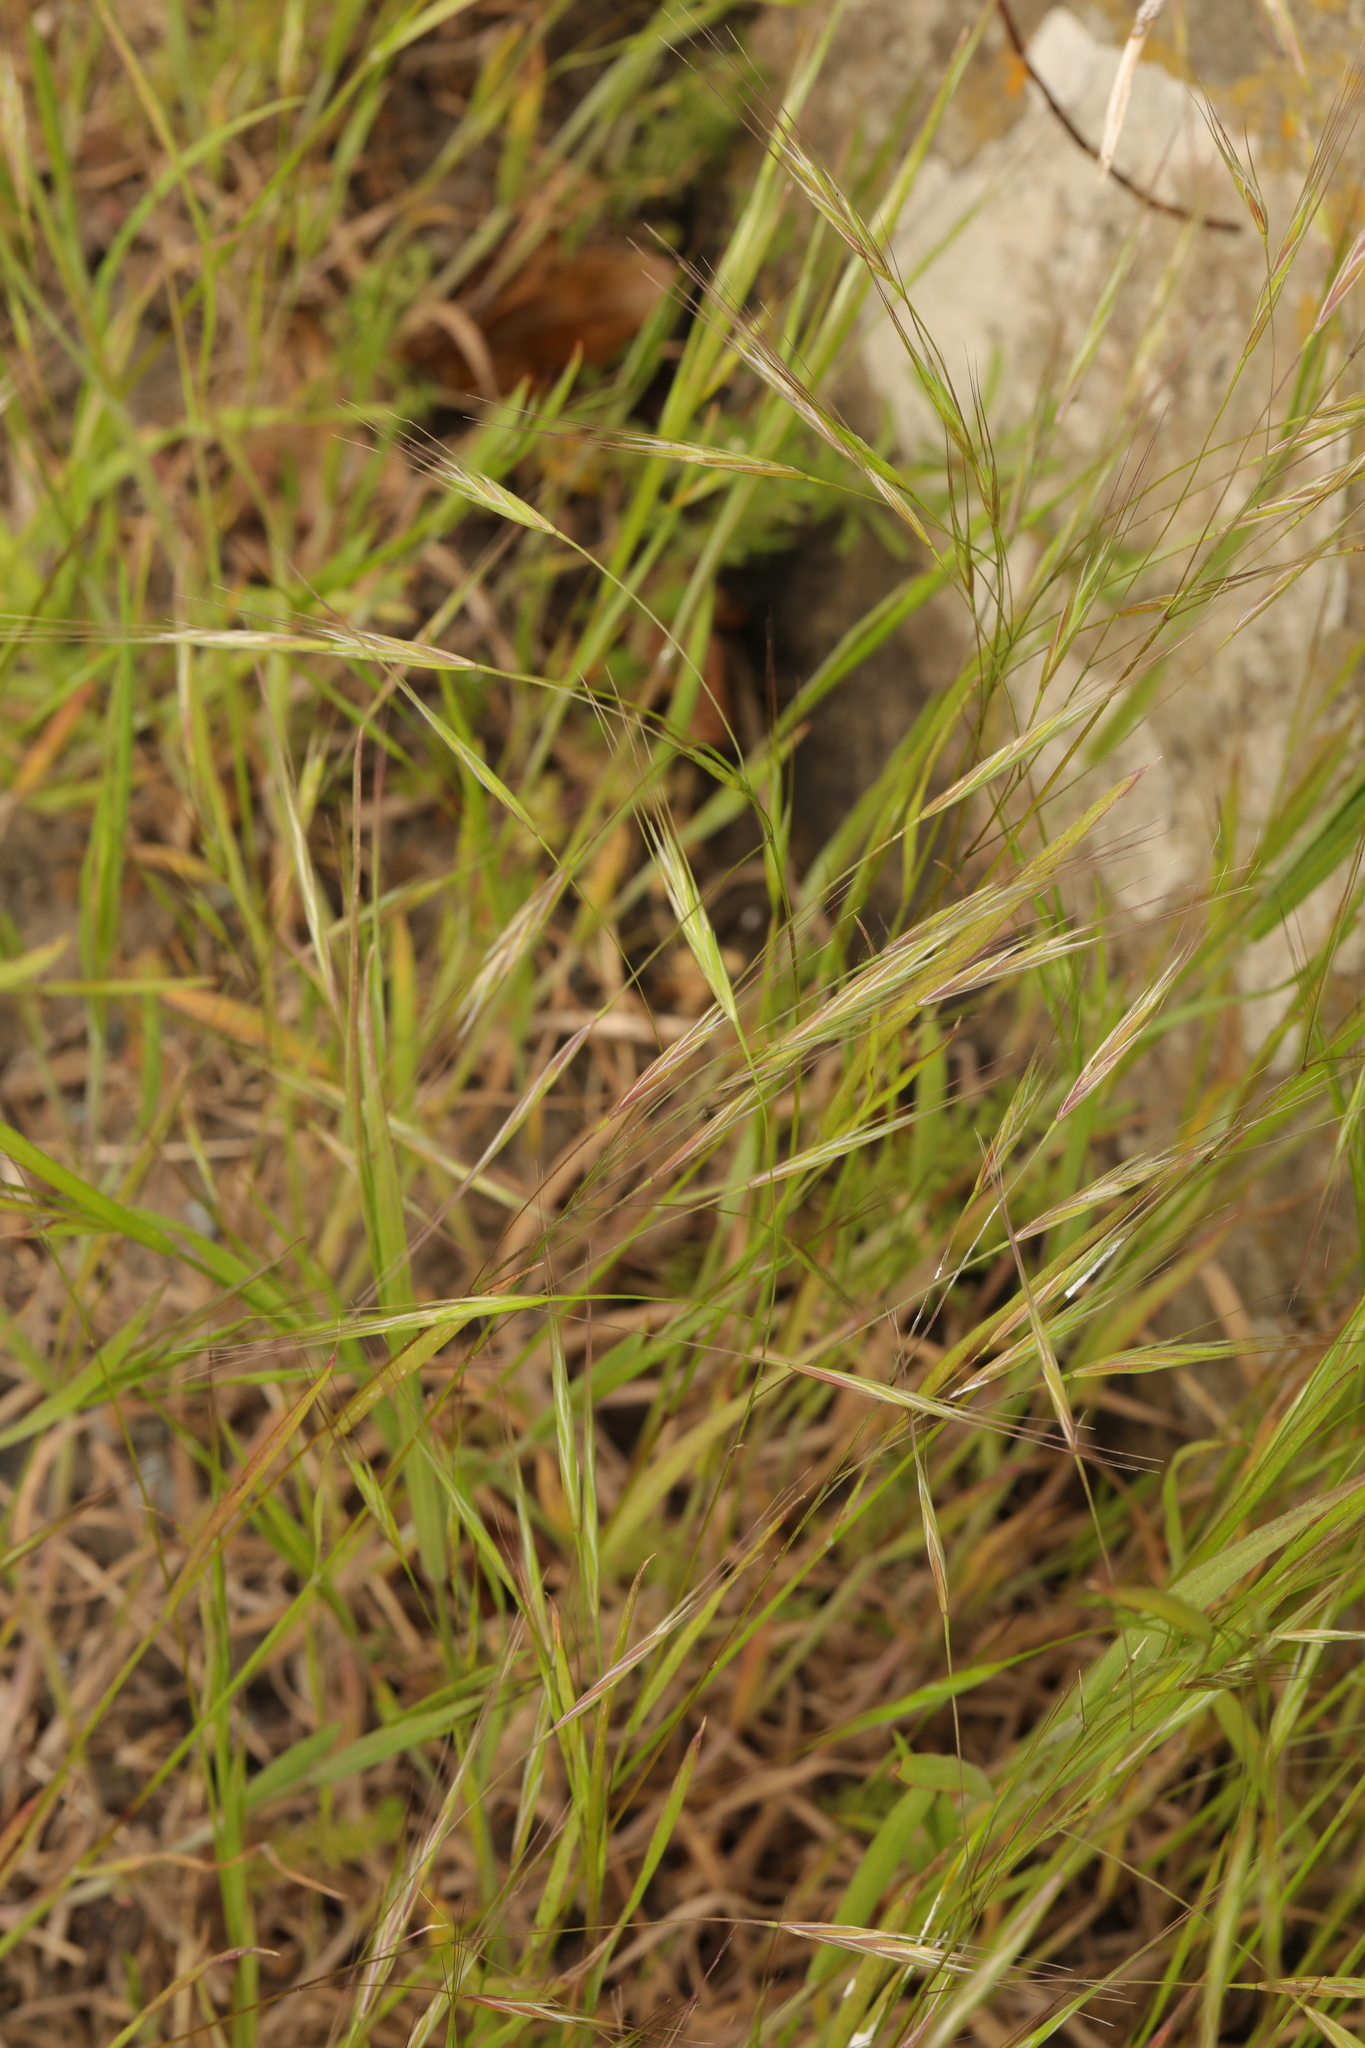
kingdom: Plantae
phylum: Tracheophyta
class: Liliopsida
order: Poales
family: Poaceae
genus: Bromus
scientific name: Bromus sterilis
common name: Poverty brome
